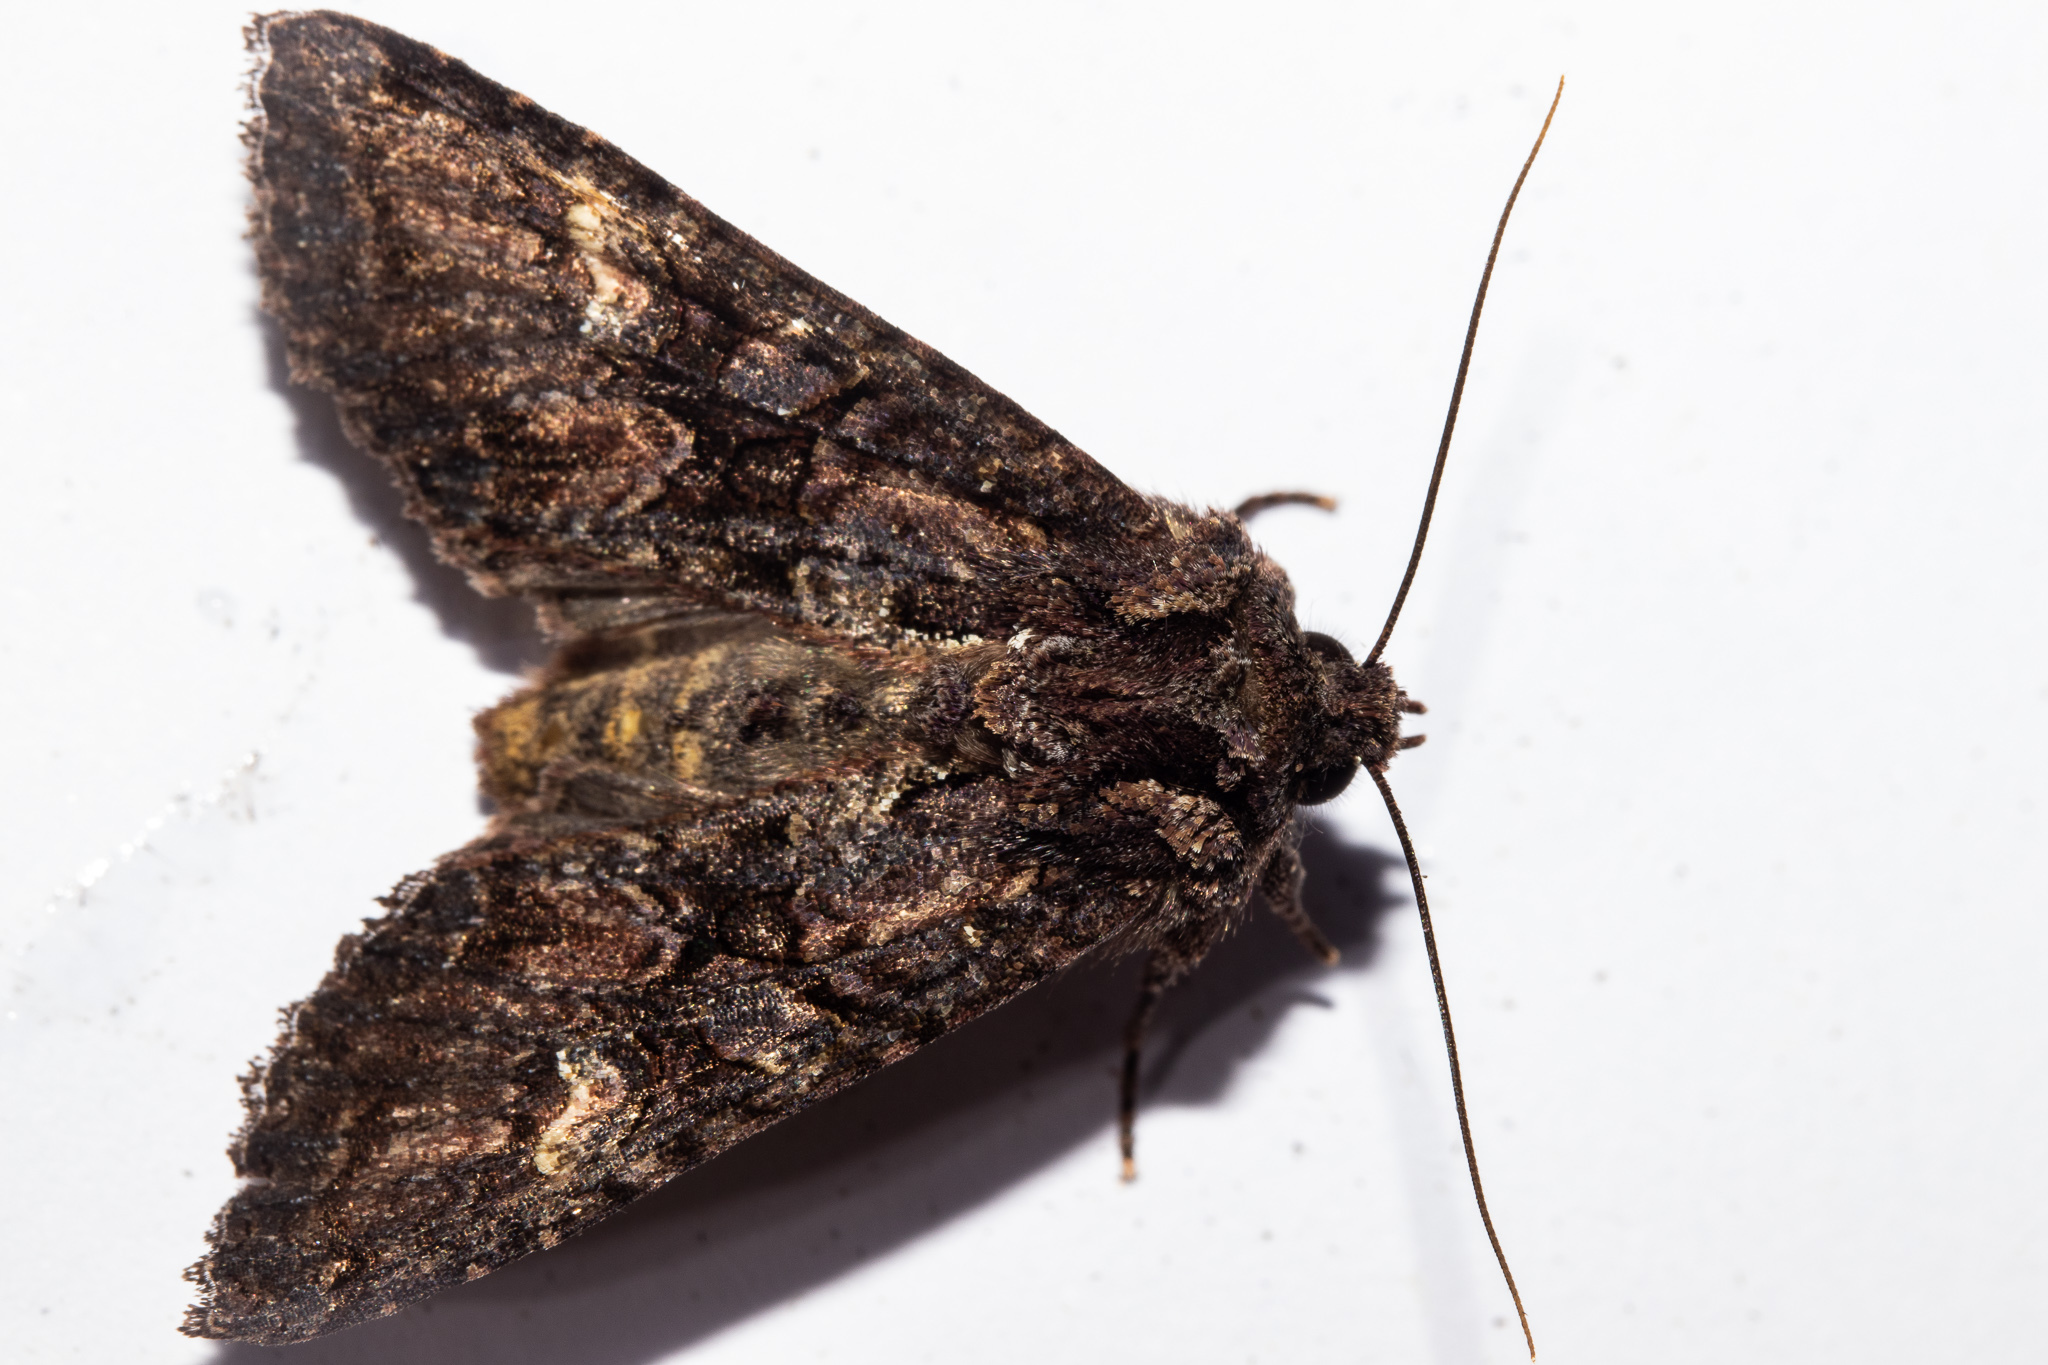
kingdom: Animalia
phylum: Arthropoda
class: Insecta
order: Lepidoptera
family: Noctuidae
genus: Meterana
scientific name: Meterana dotata
